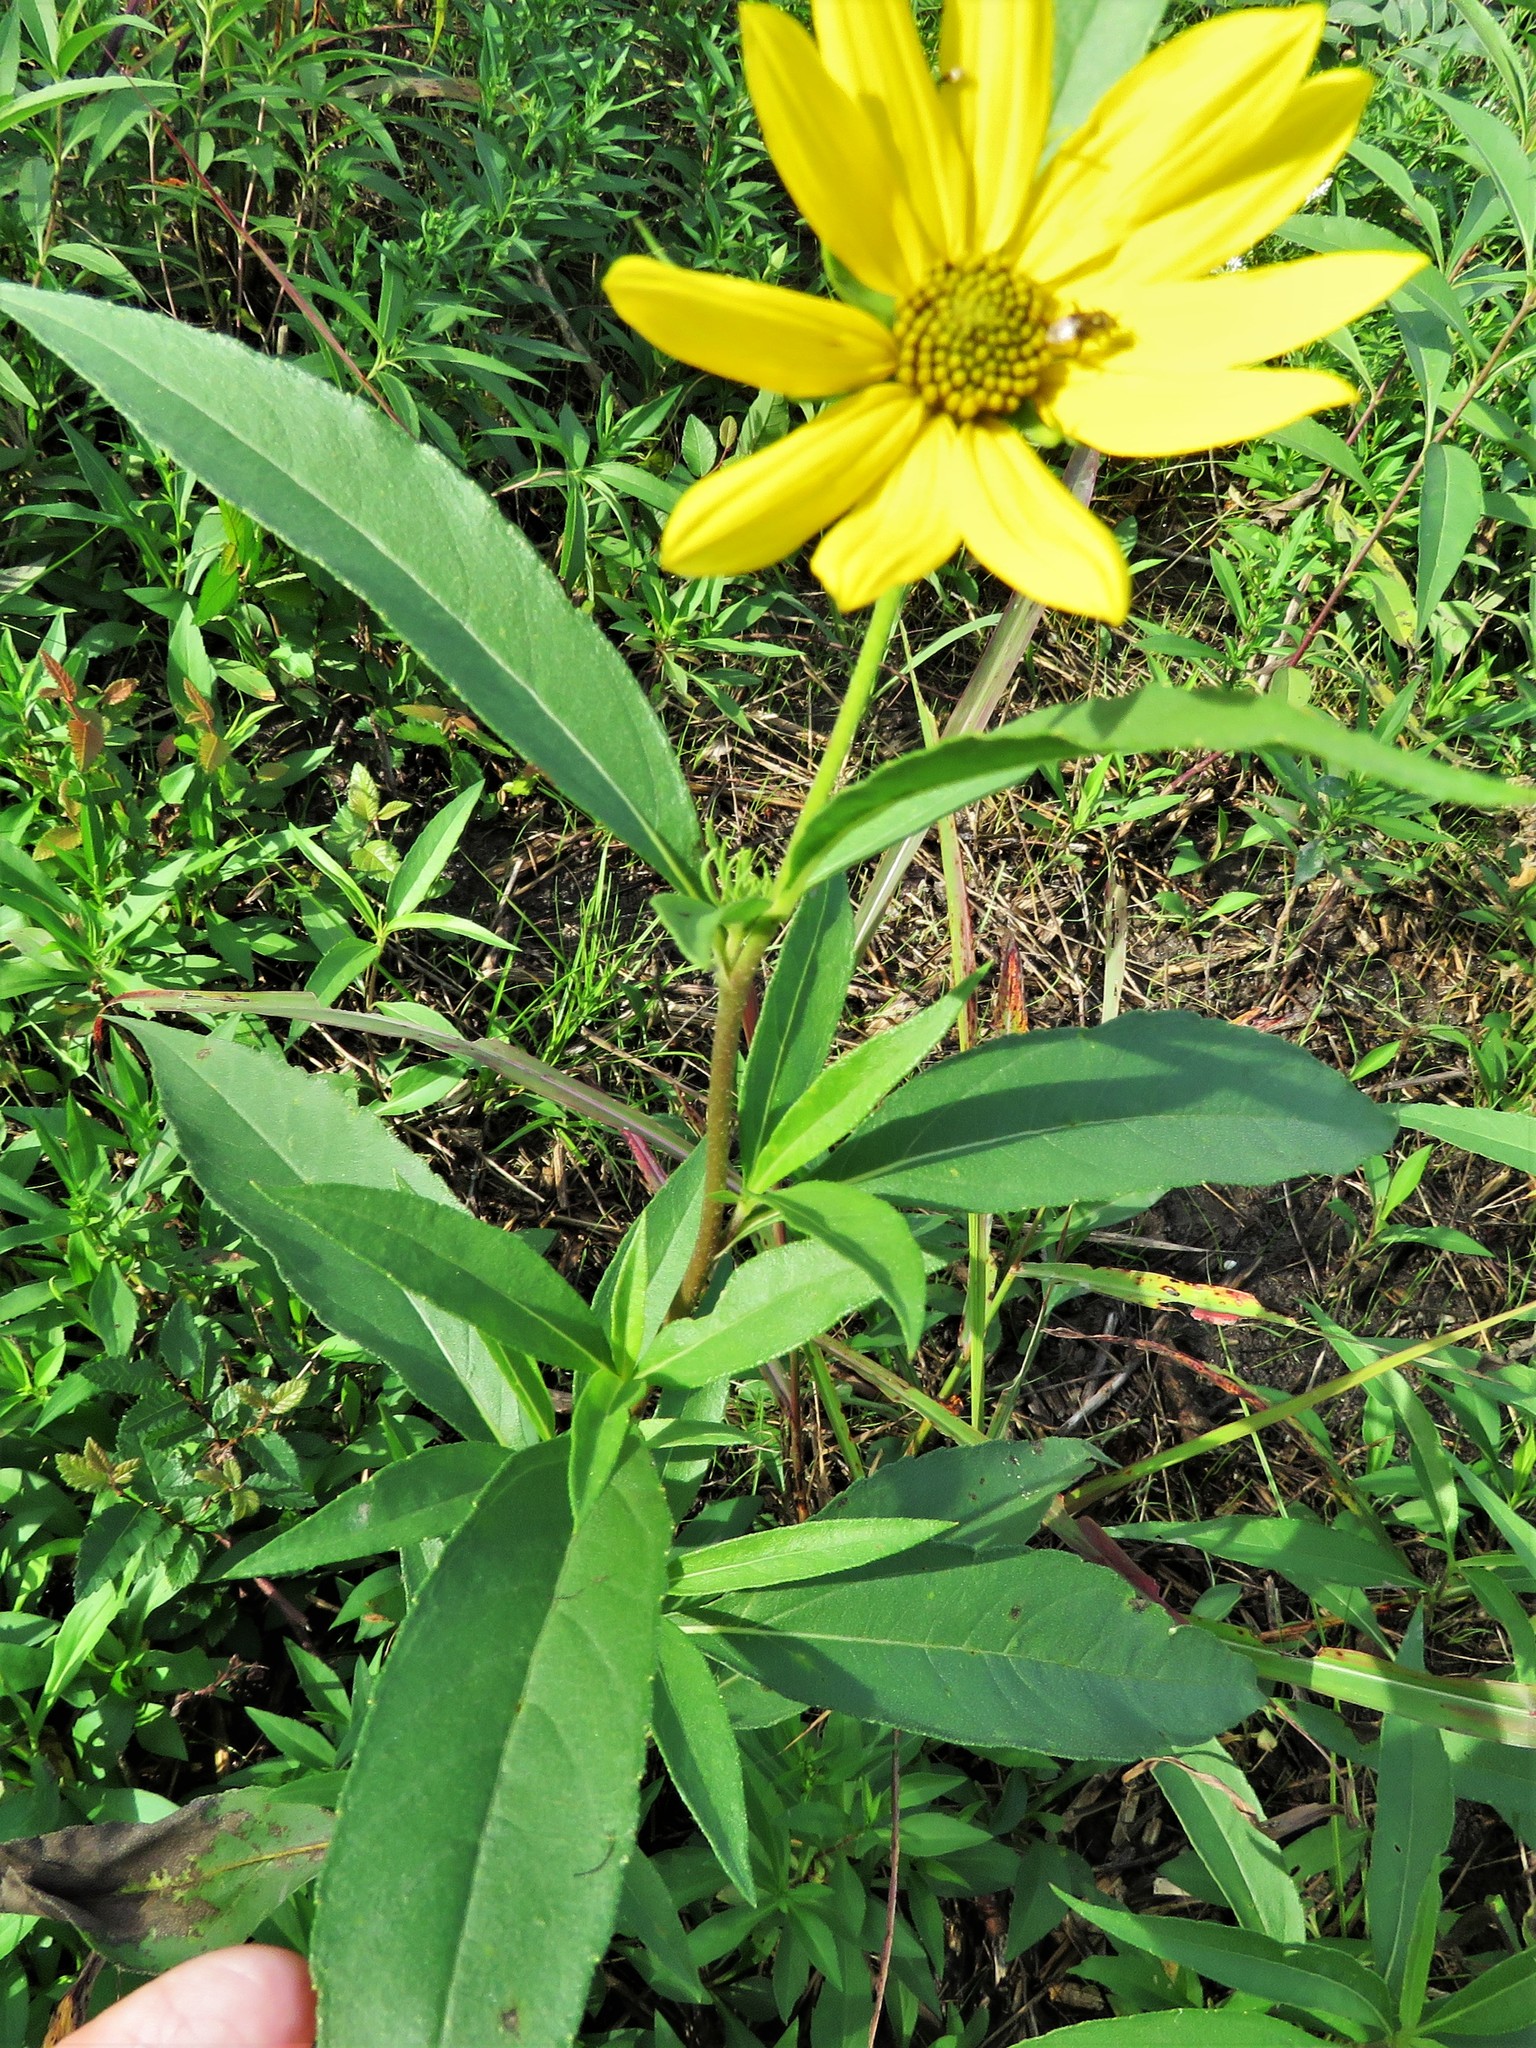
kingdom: Plantae
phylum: Tracheophyta
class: Magnoliopsida
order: Asterales
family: Asteraceae
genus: Helianthus
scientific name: Helianthus maximiliani
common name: Maximilian's sunflower
